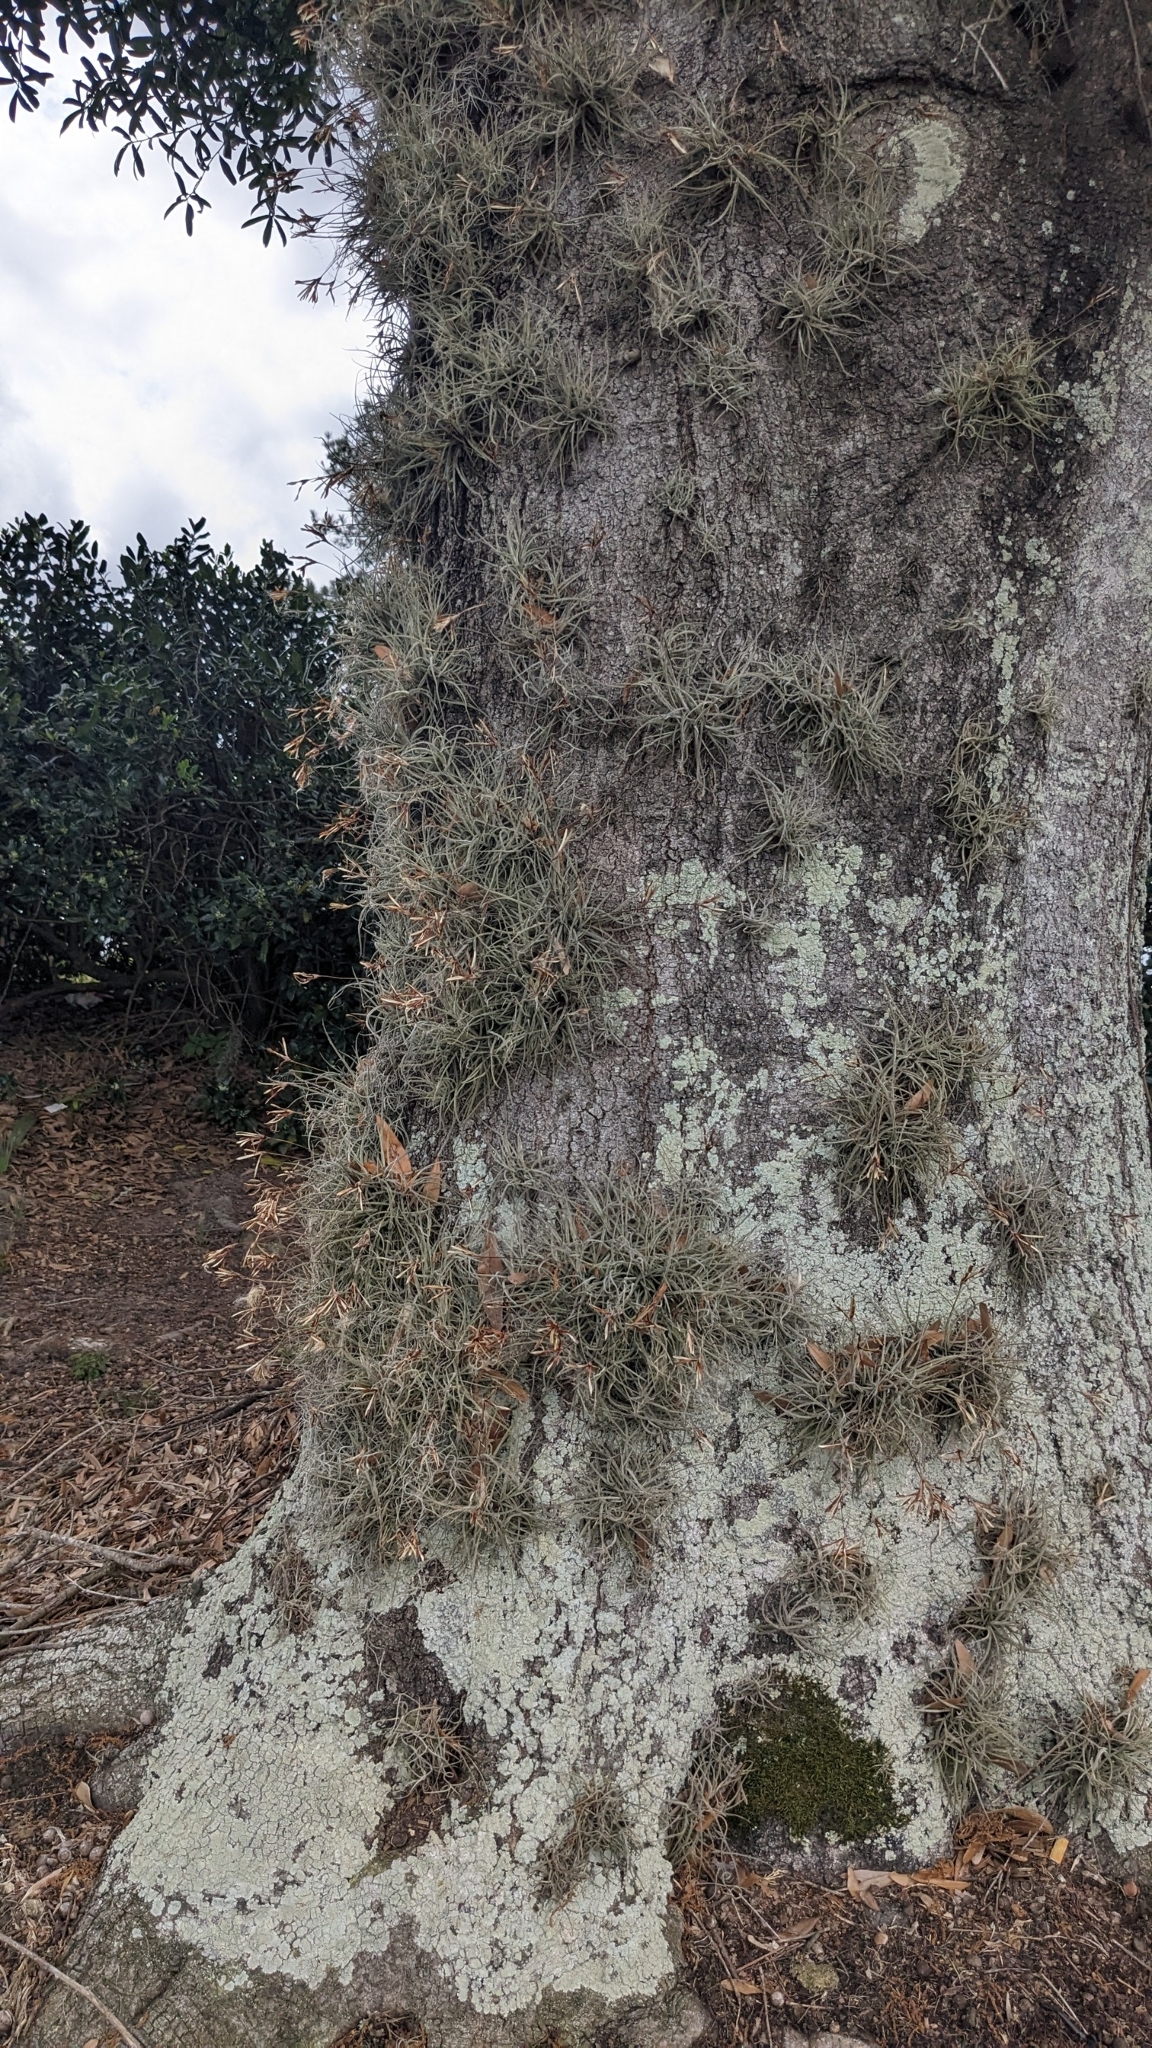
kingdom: Plantae
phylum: Tracheophyta
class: Liliopsida
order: Poales
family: Bromeliaceae
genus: Tillandsia
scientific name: Tillandsia recurvata
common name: Small ballmoss
